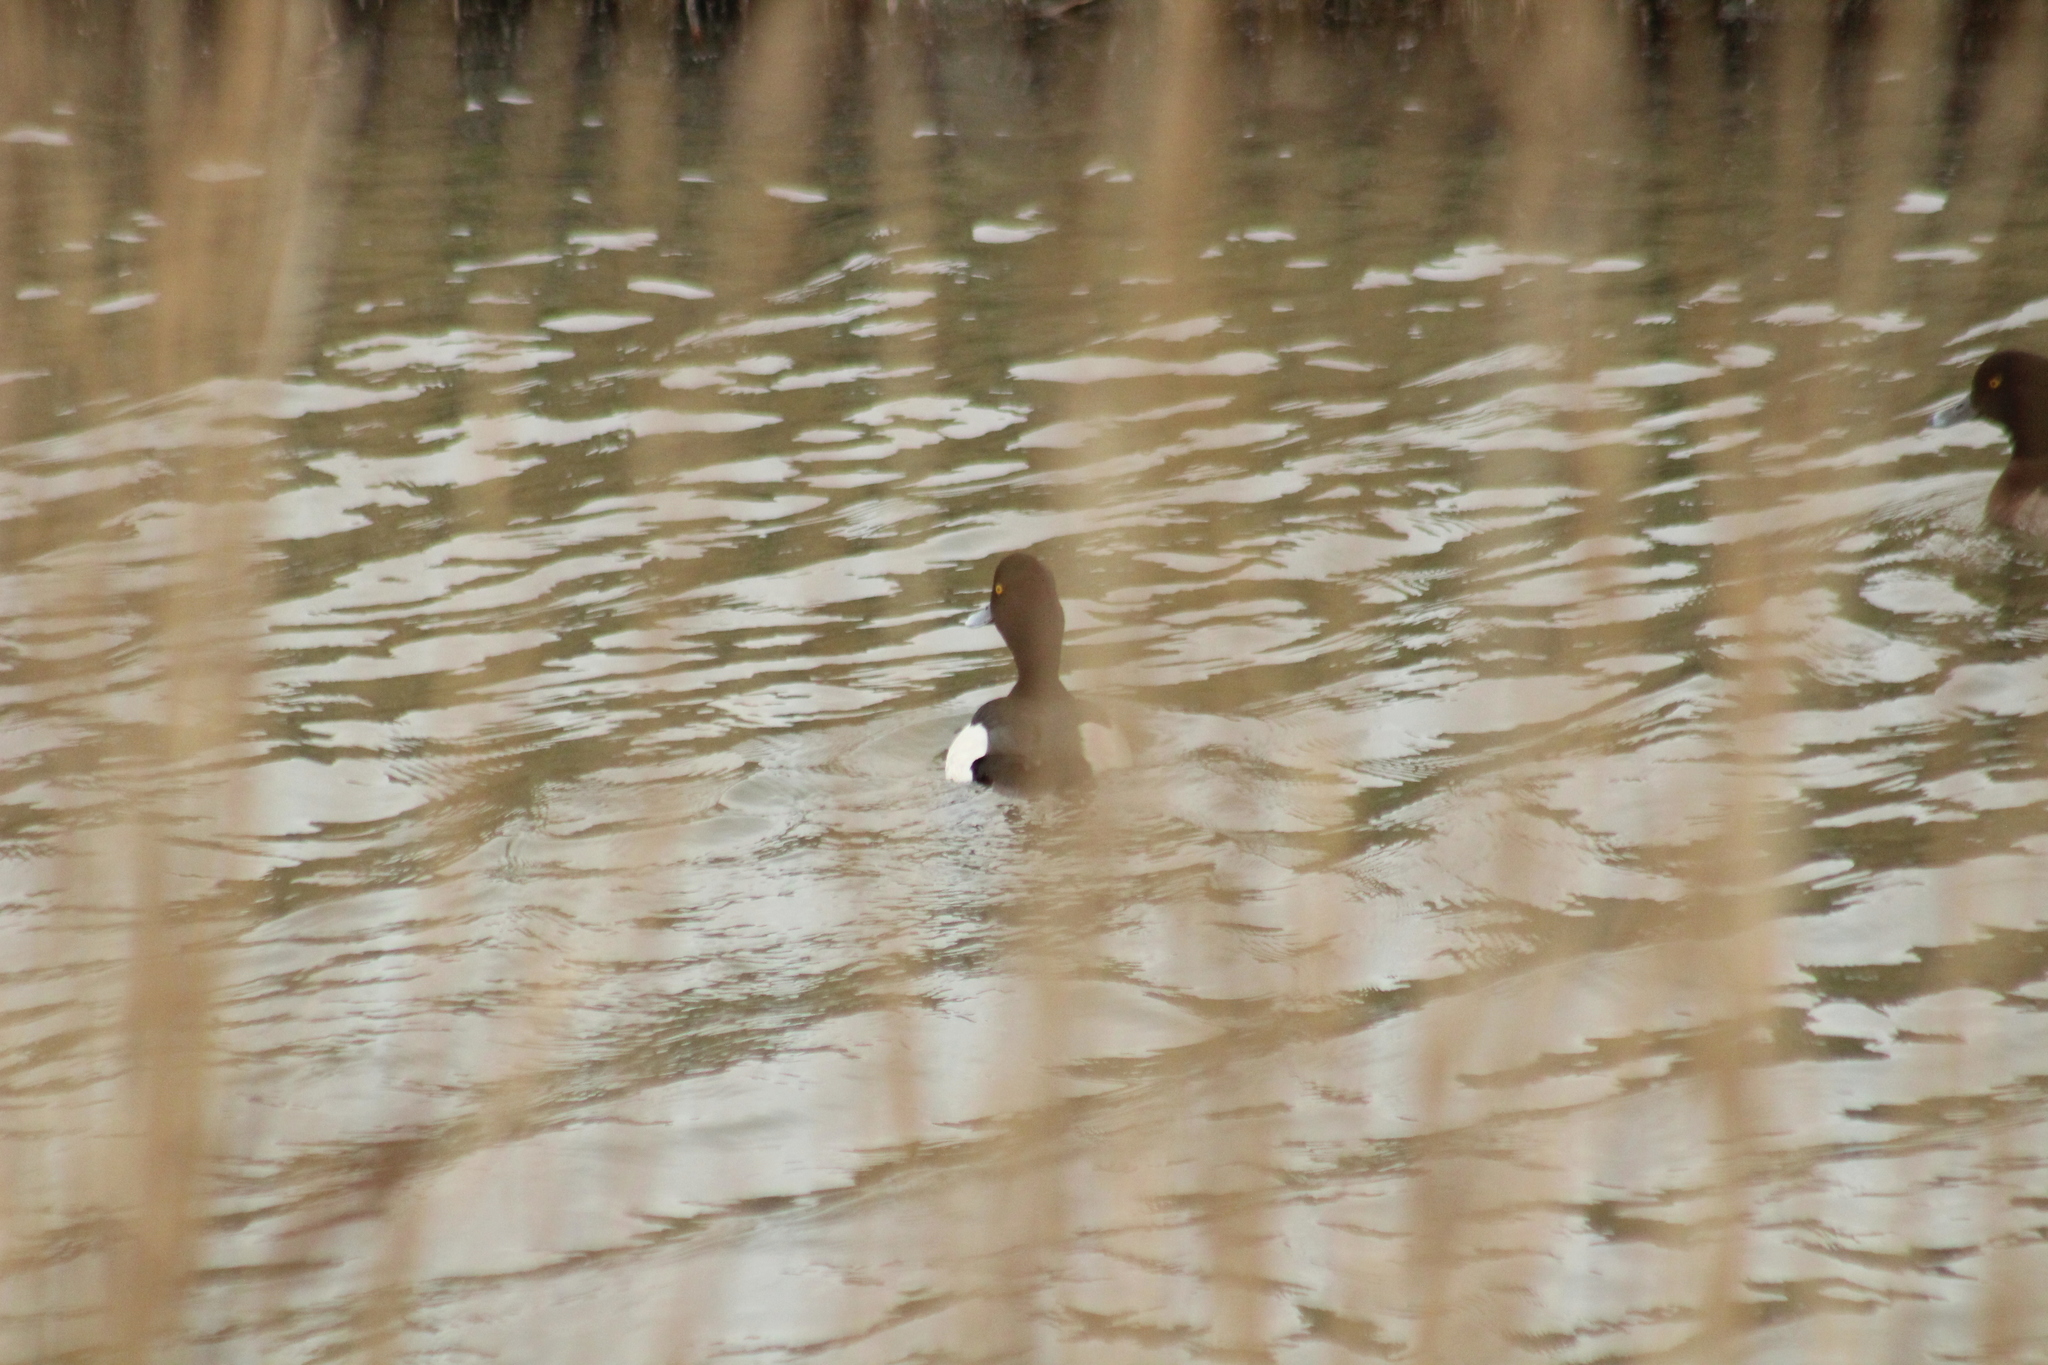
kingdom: Animalia
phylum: Chordata
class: Aves
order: Anseriformes
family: Anatidae
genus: Aythya
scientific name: Aythya fuligula
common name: Tufted duck
